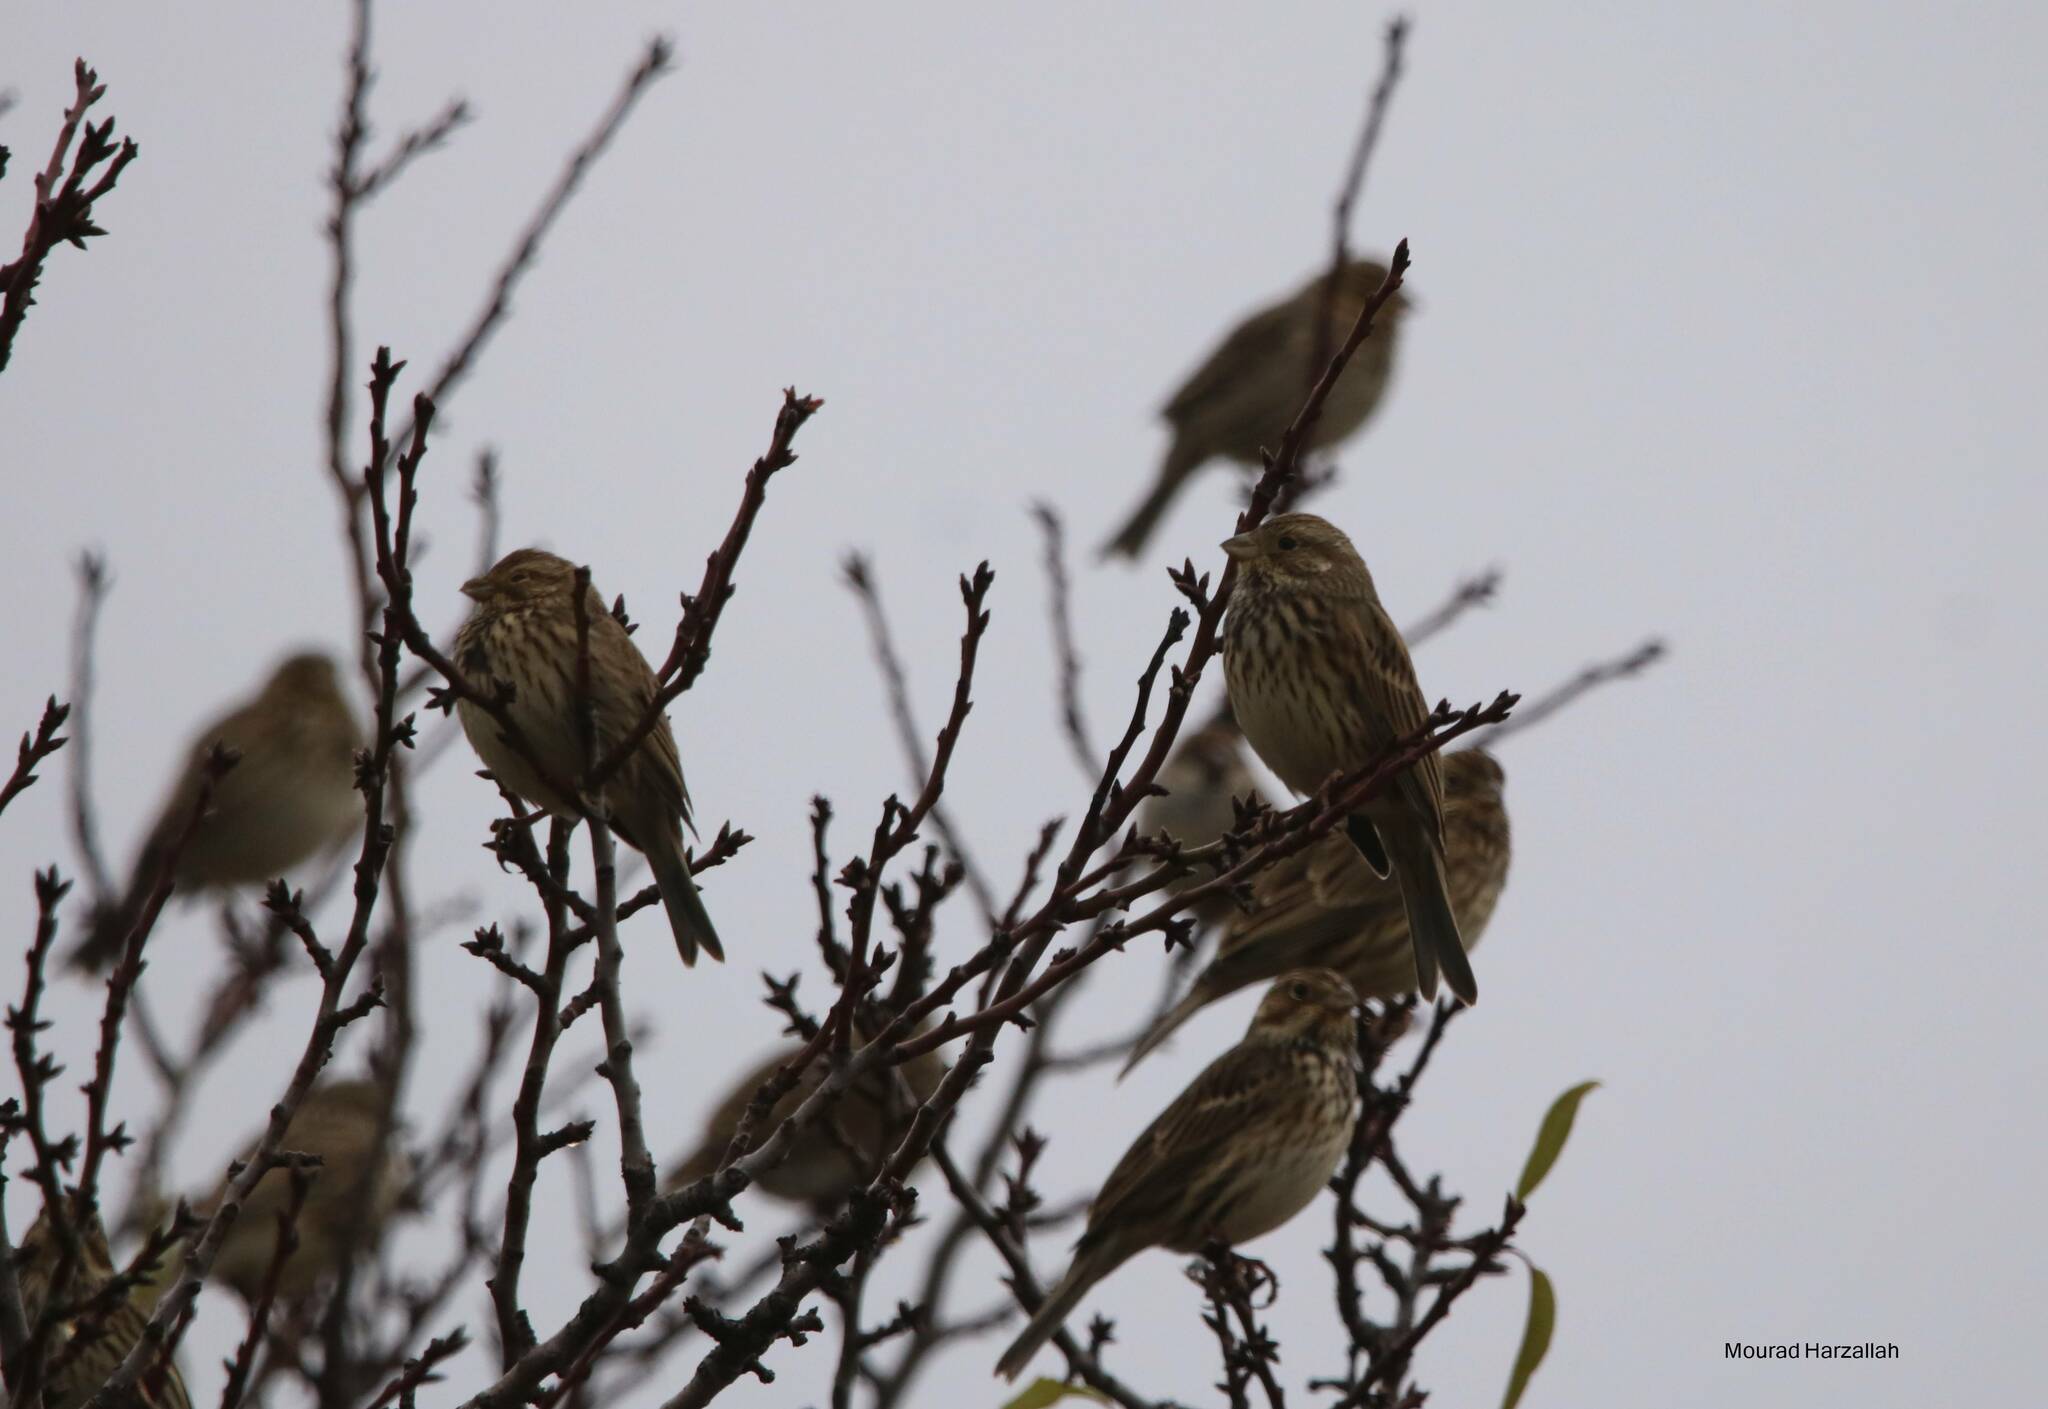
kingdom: Animalia
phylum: Chordata
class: Aves
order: Passeriformes
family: Emberizidae
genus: Emberiza
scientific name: Emberiza calandra
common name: Corn bunting
